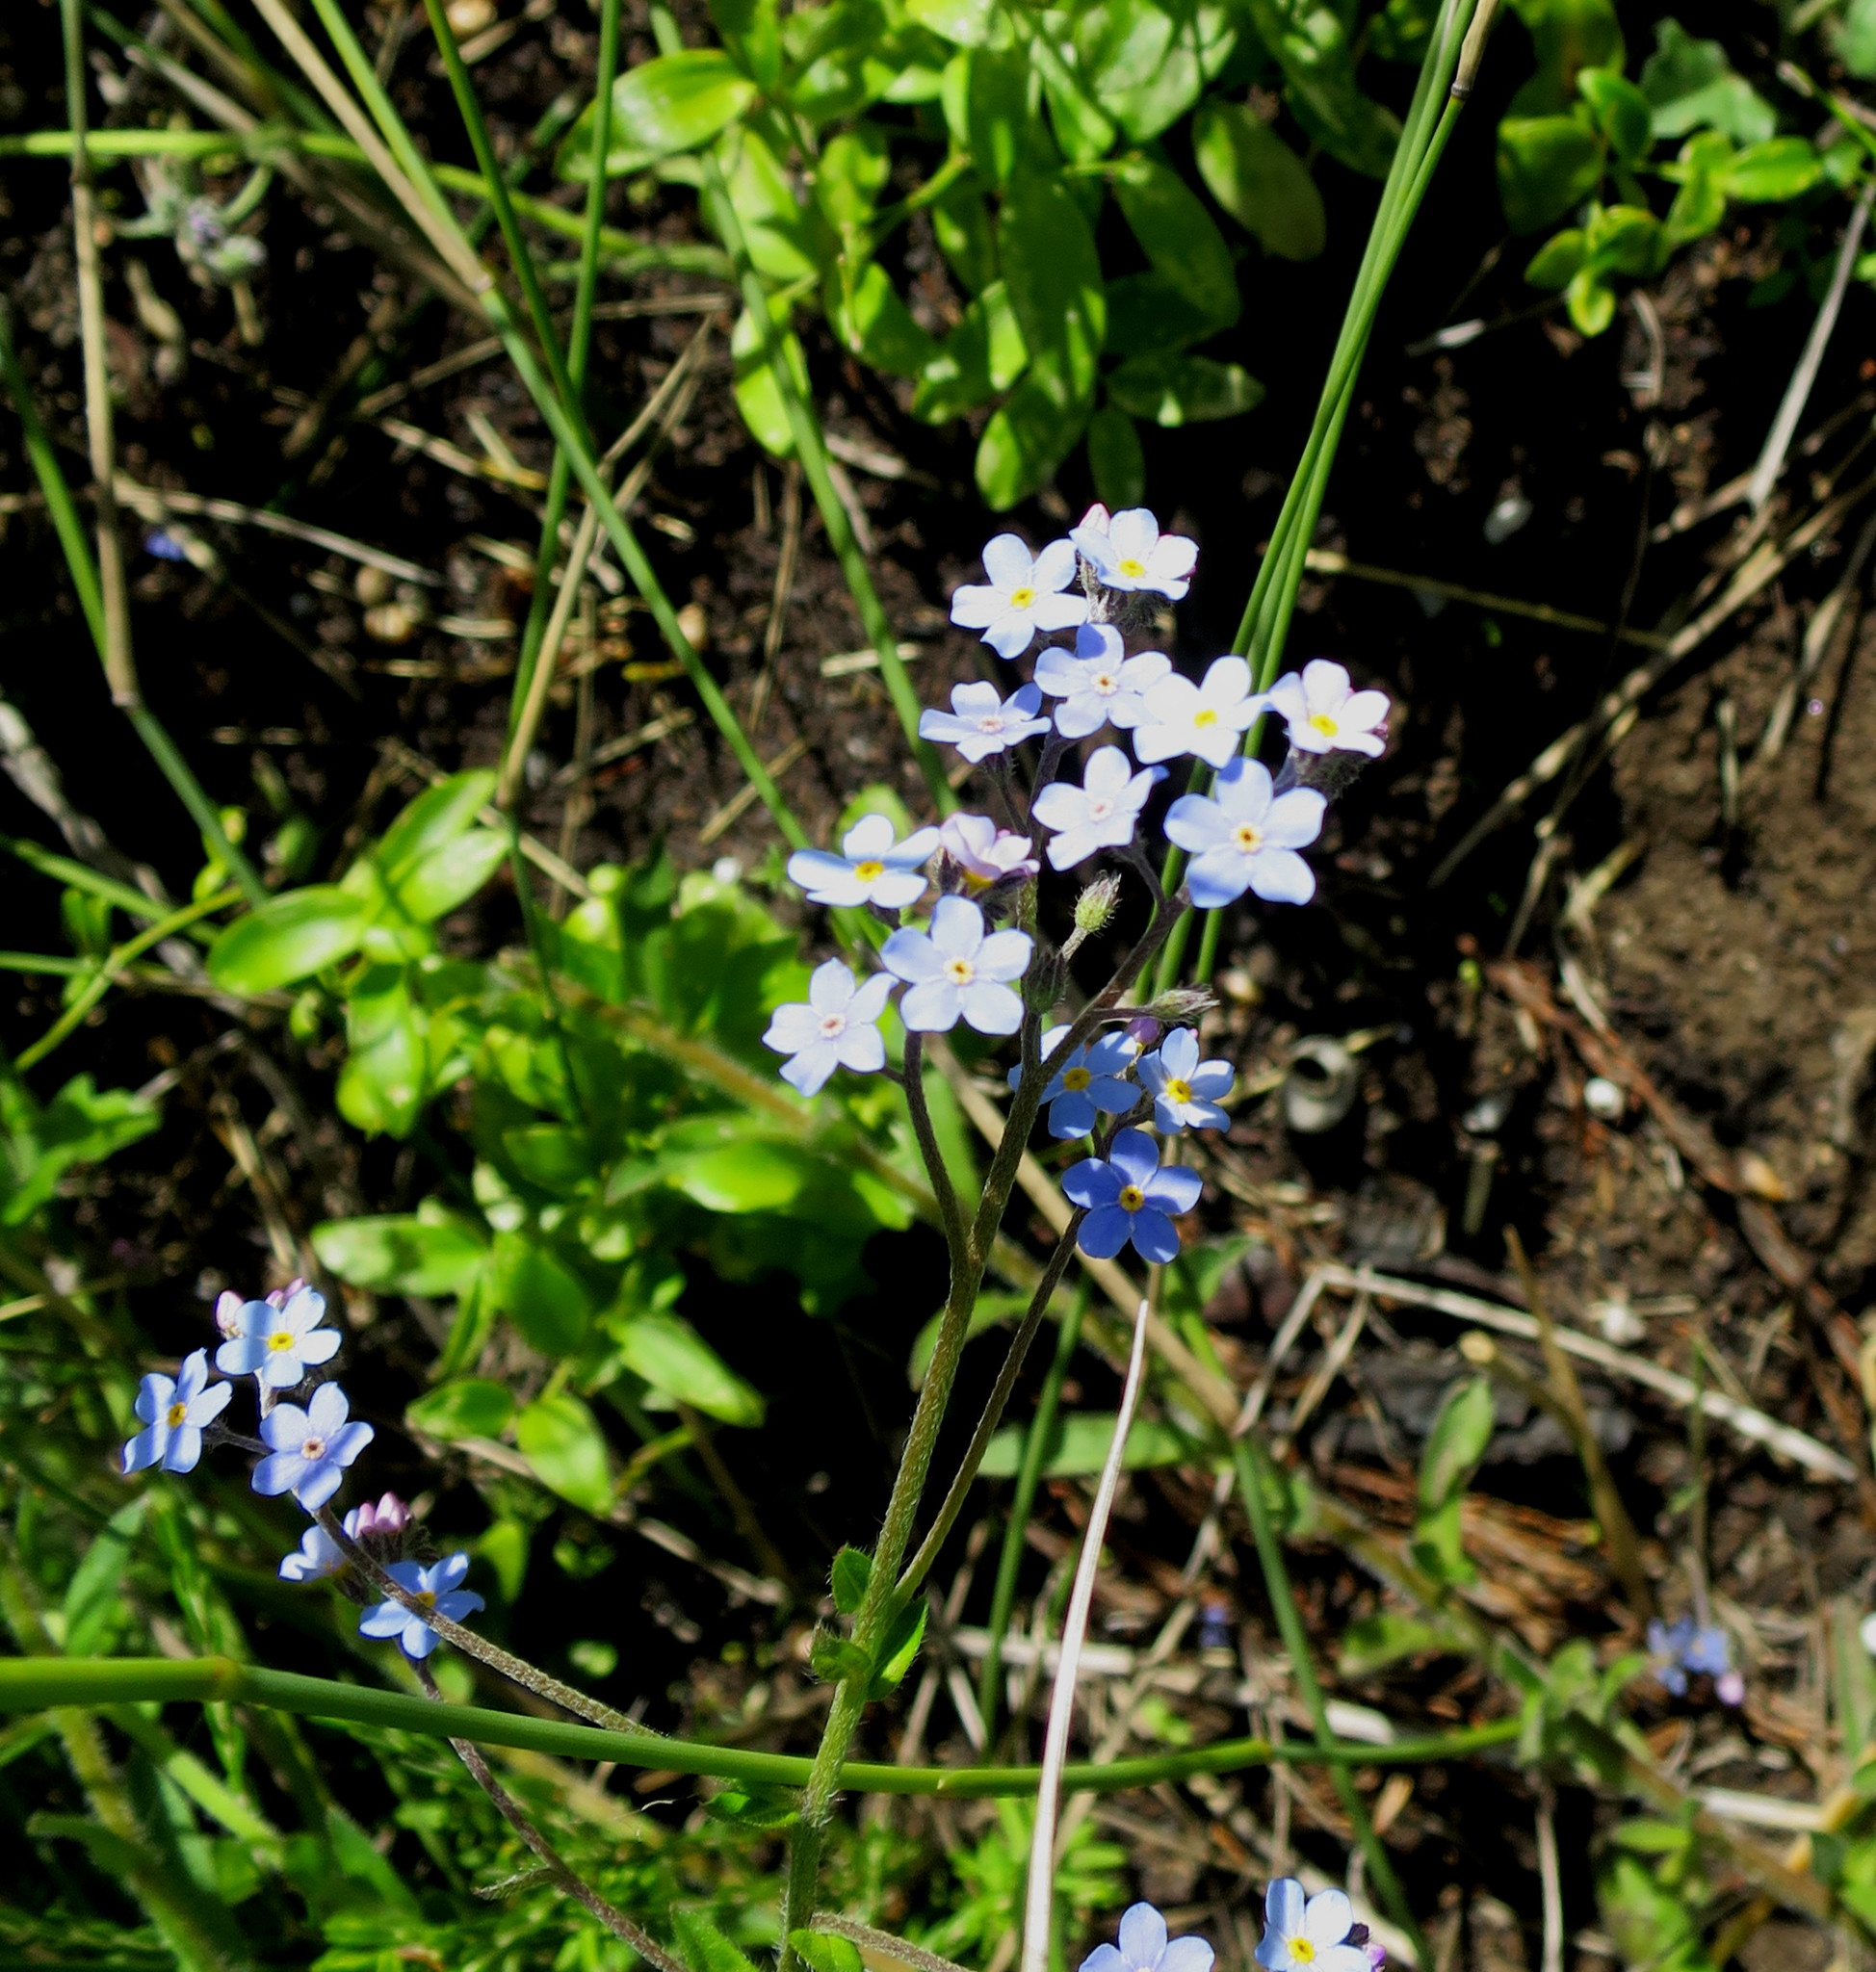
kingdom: Plantae
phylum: Tracheophyta
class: Magnoliopsida
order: Boraginales
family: Boraginaceae
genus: Anchusa
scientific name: Anchusa capensis
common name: Cape bugloss
